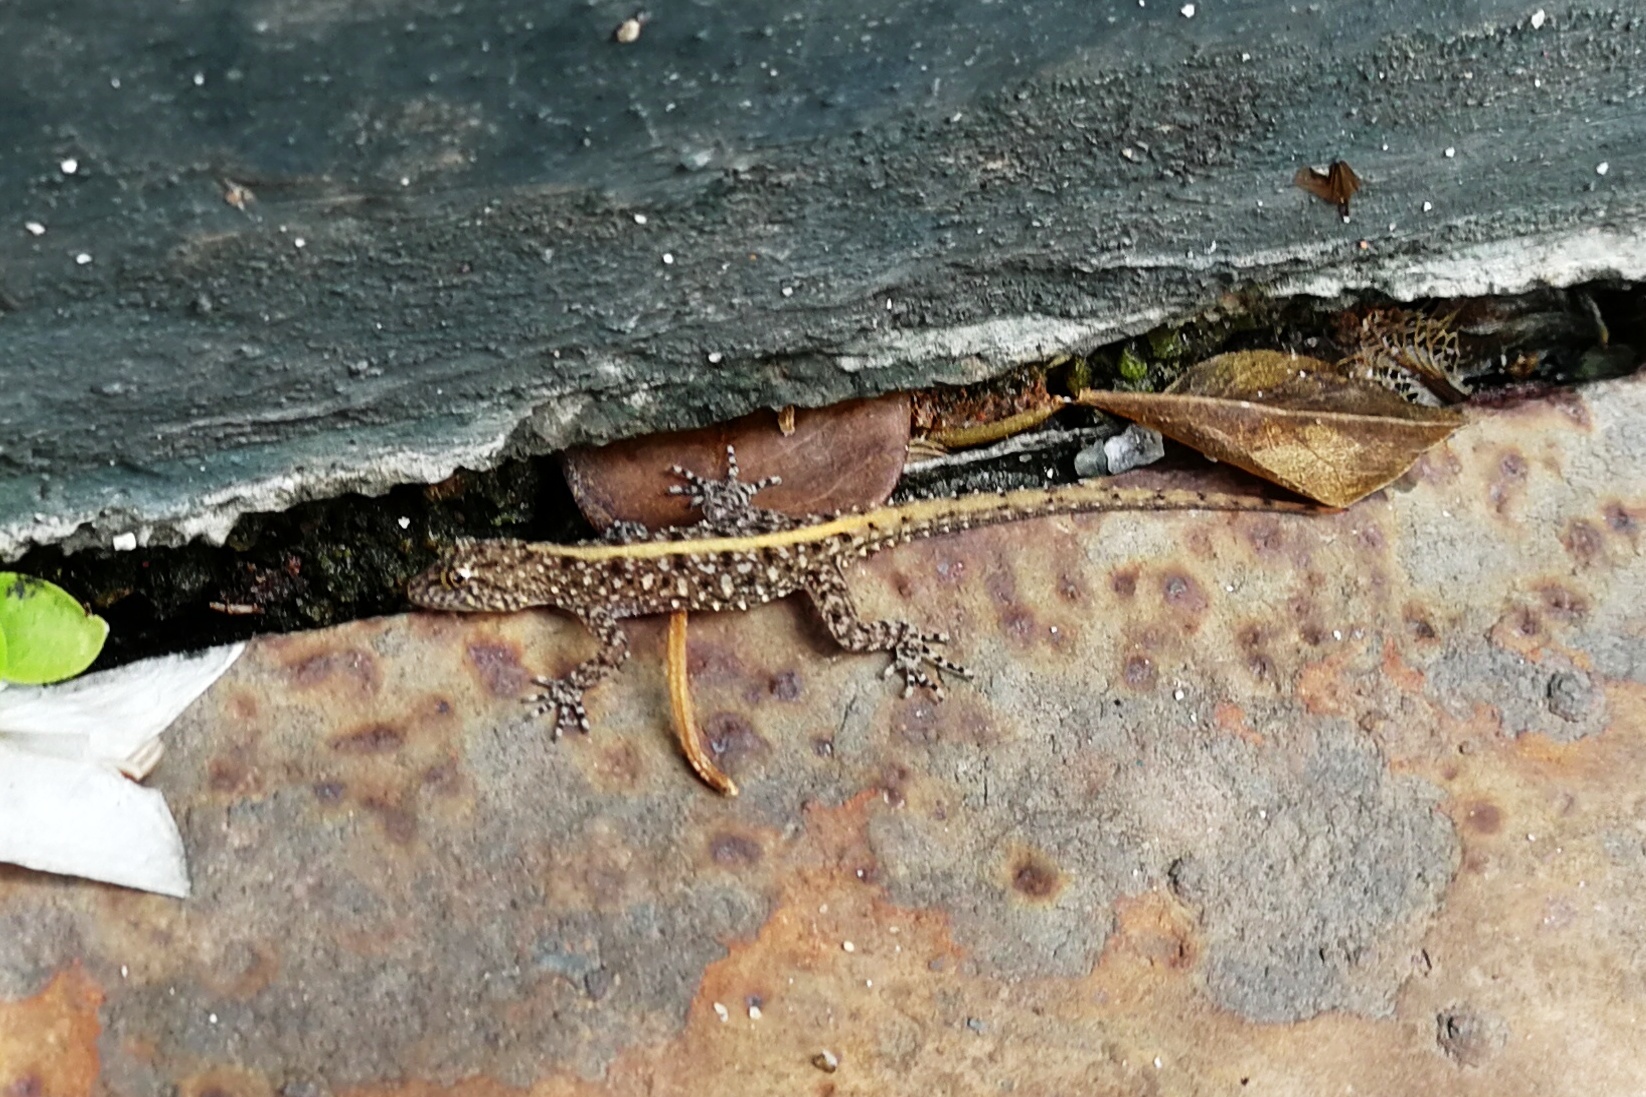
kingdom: Animalia
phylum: Chordata
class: Squamata
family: Gekkonidae
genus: Cnemaspis
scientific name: Cnemaspis mysoriensis
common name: Mysore day gecko
